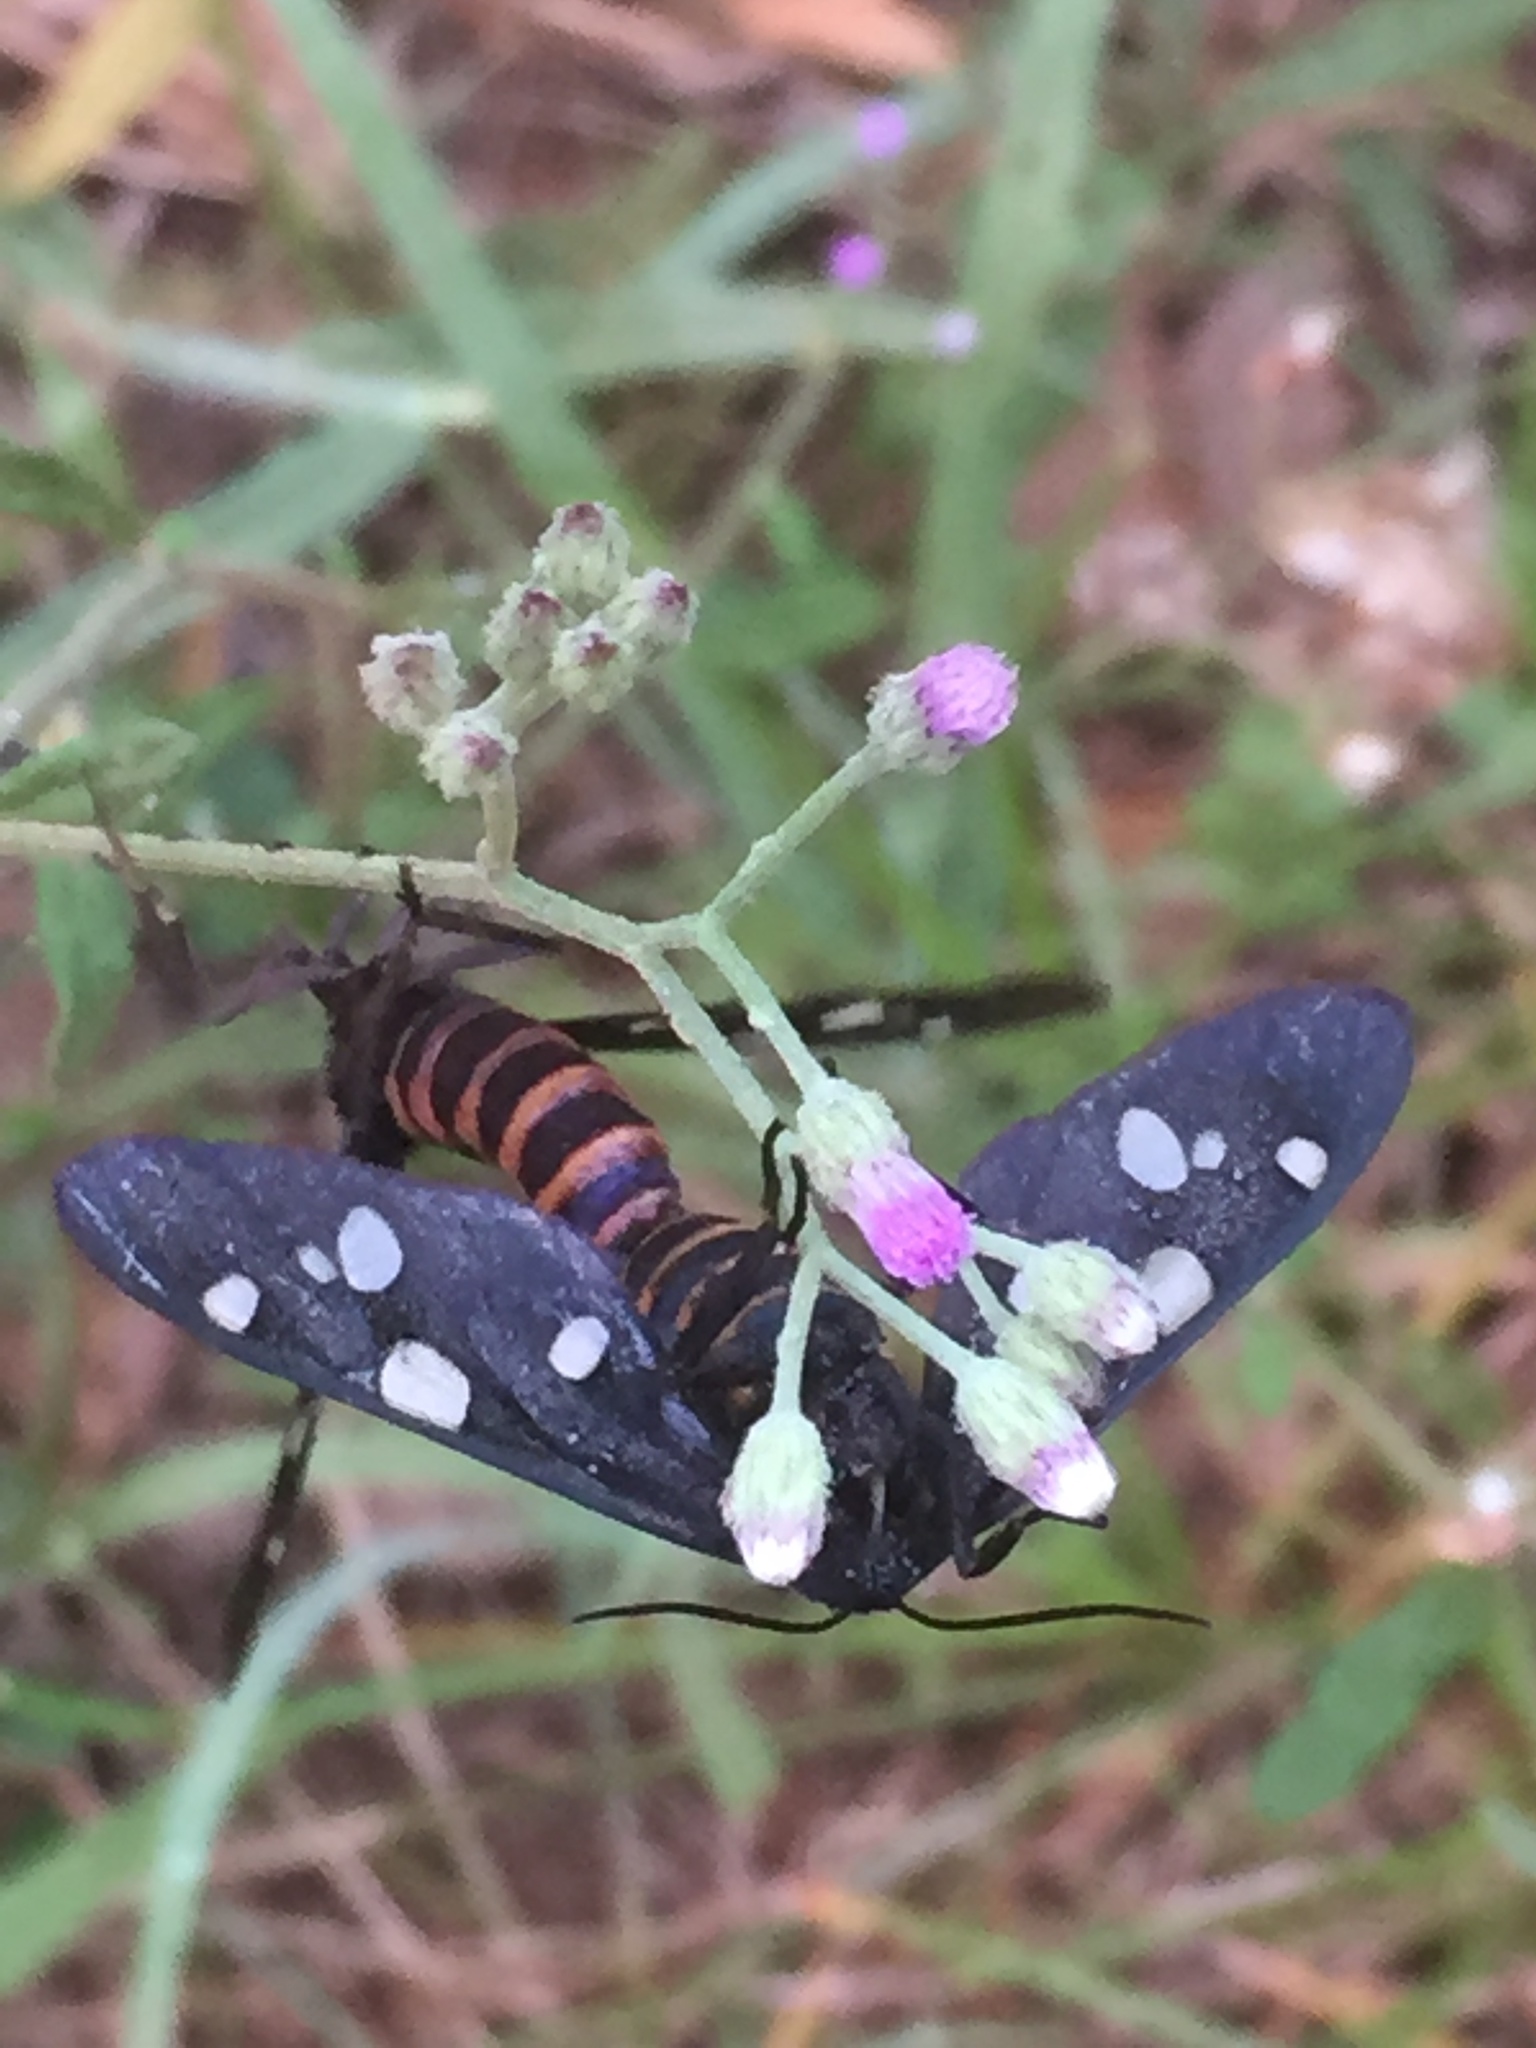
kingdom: Plantae
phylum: Tracheophyta
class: Magnoliopsida
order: Asterales
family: Asteraceae
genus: Cyanthillium
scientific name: Cyanthillium cinereum
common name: Little ironweed
